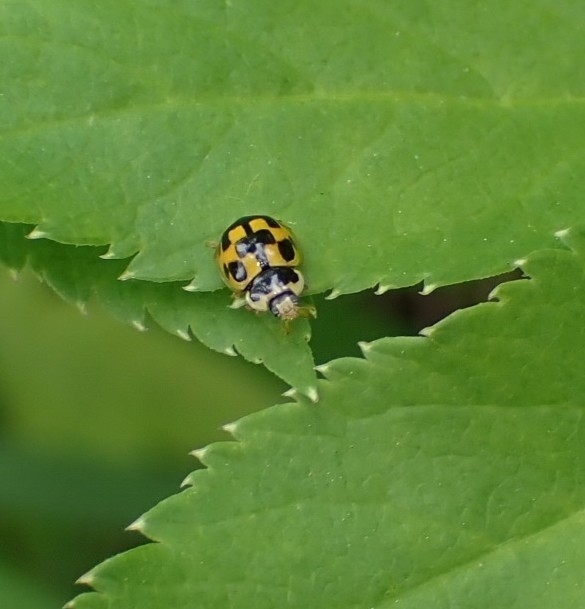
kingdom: Animalia
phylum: Arthropoda
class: Insecta
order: Coleoptera
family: Coccinellidae
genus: Propylaea
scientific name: Propylaea quatuordecimpunctata
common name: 14-spotted ladybird beetle
